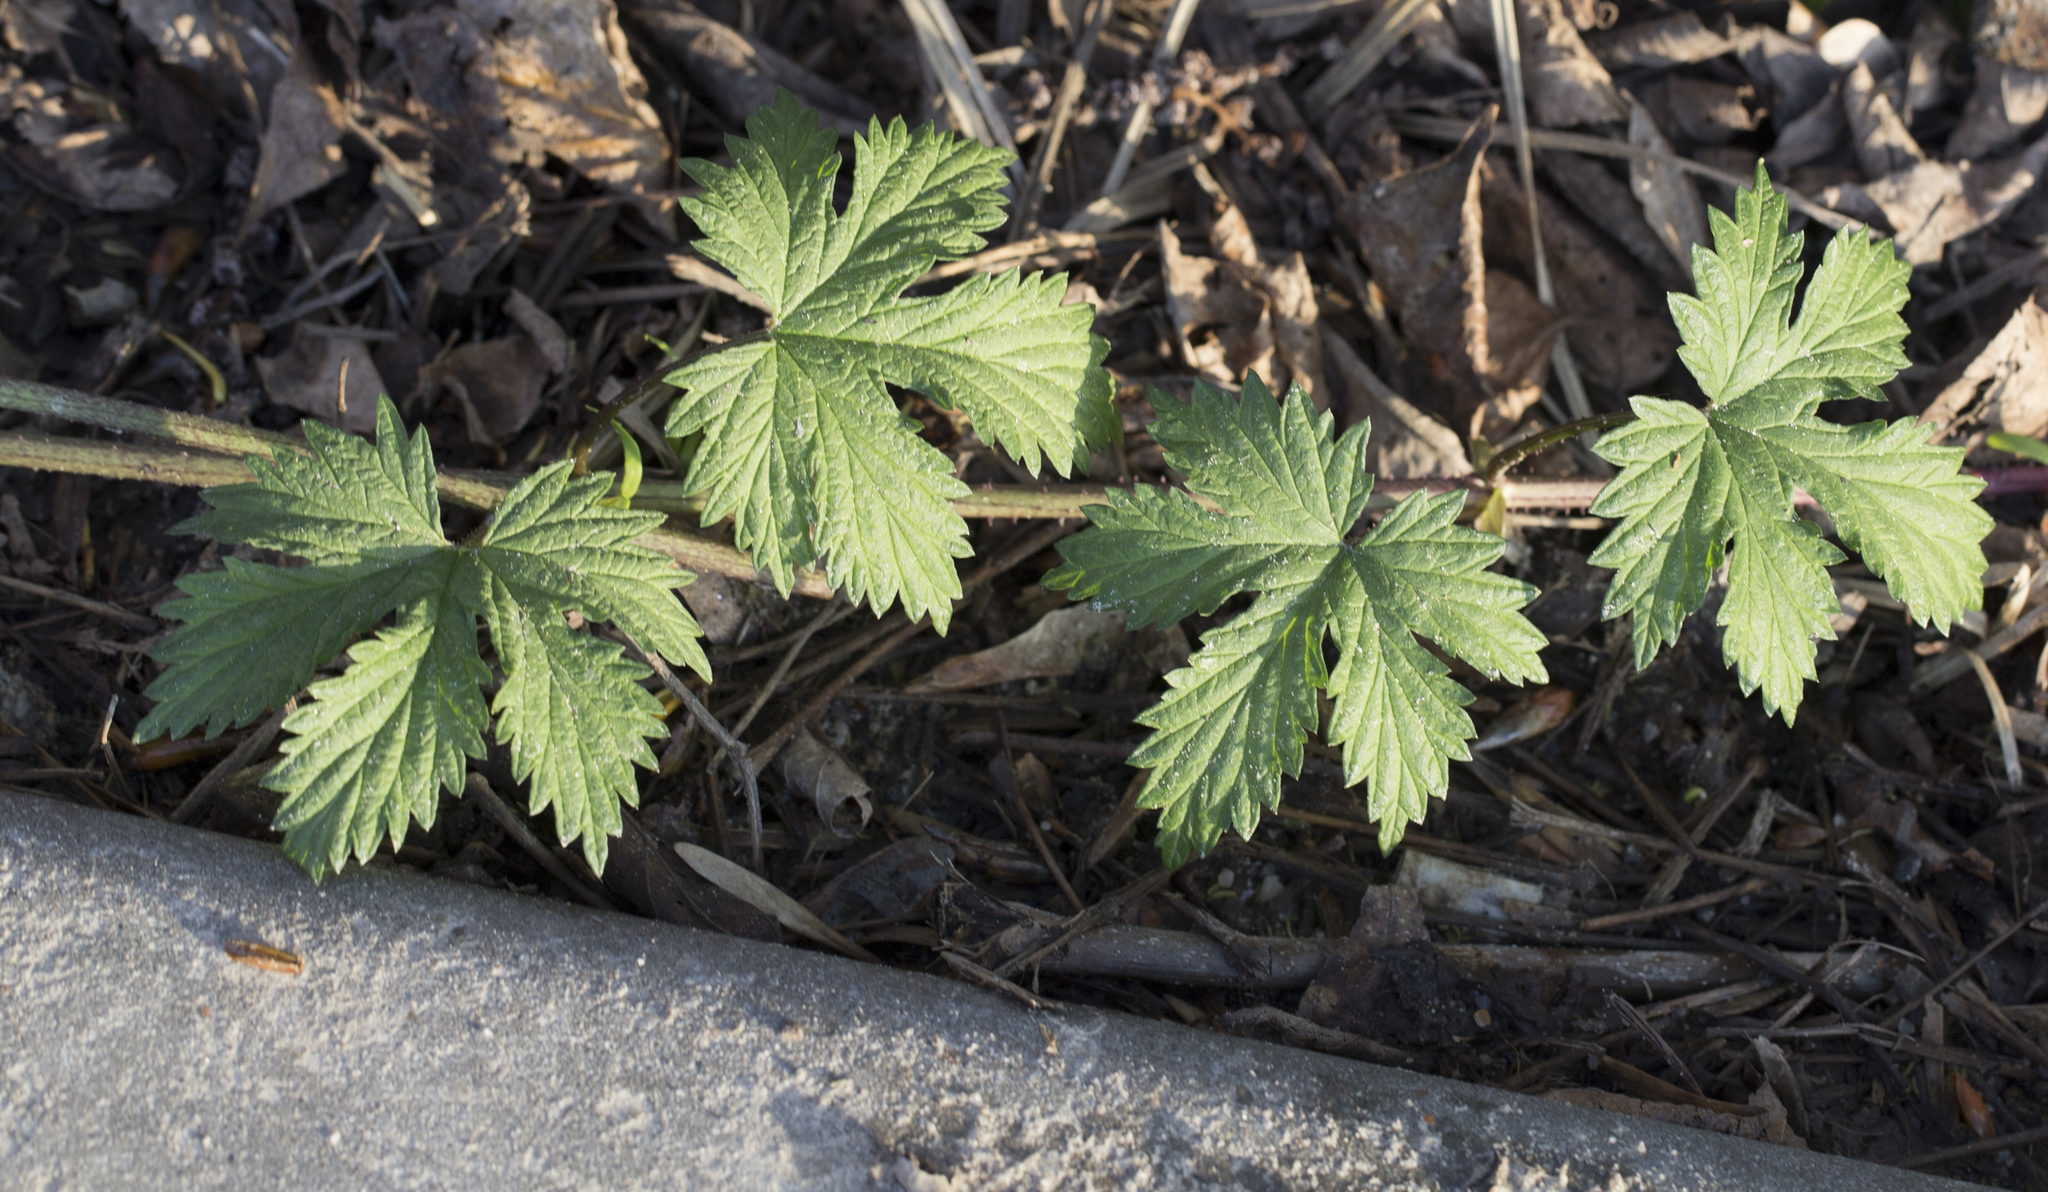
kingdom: Plantae
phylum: Tracheophyta
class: Magnoliopsida
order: Rosales
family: Cannabaceae
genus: Humulus
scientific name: Humulus lupulus
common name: Hop
